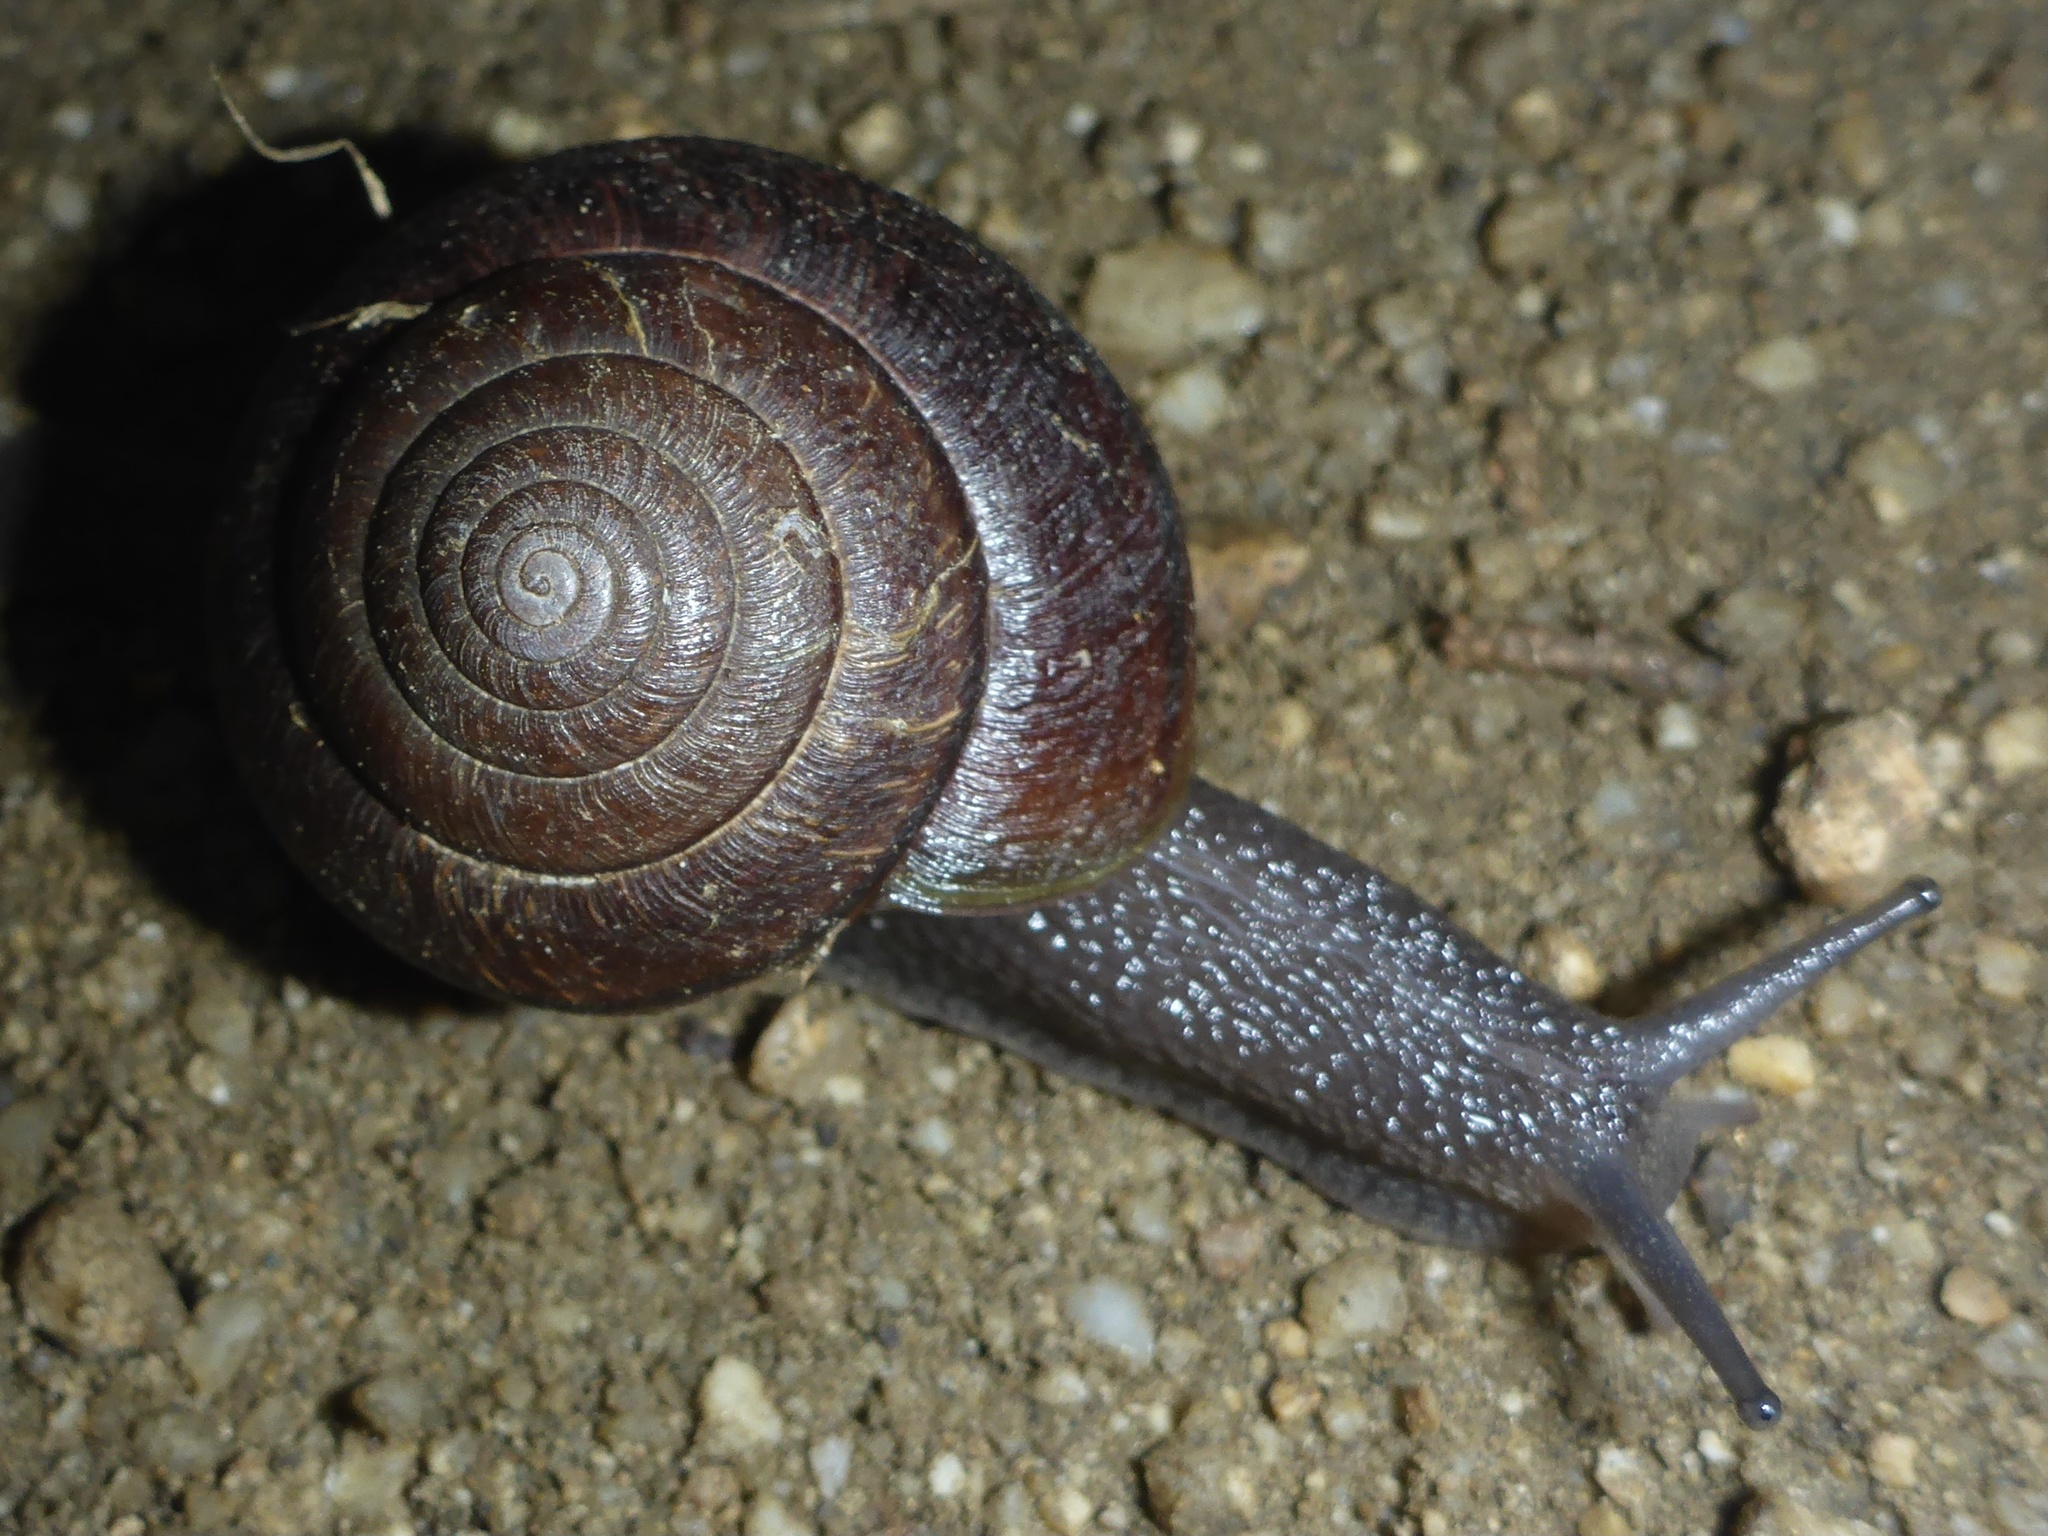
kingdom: Animalia
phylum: Mollusca
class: Gastropoda
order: Stylommatophora
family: Xanthonychidae
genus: Helminthoglypta
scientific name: Helminthoglypta arrosa
